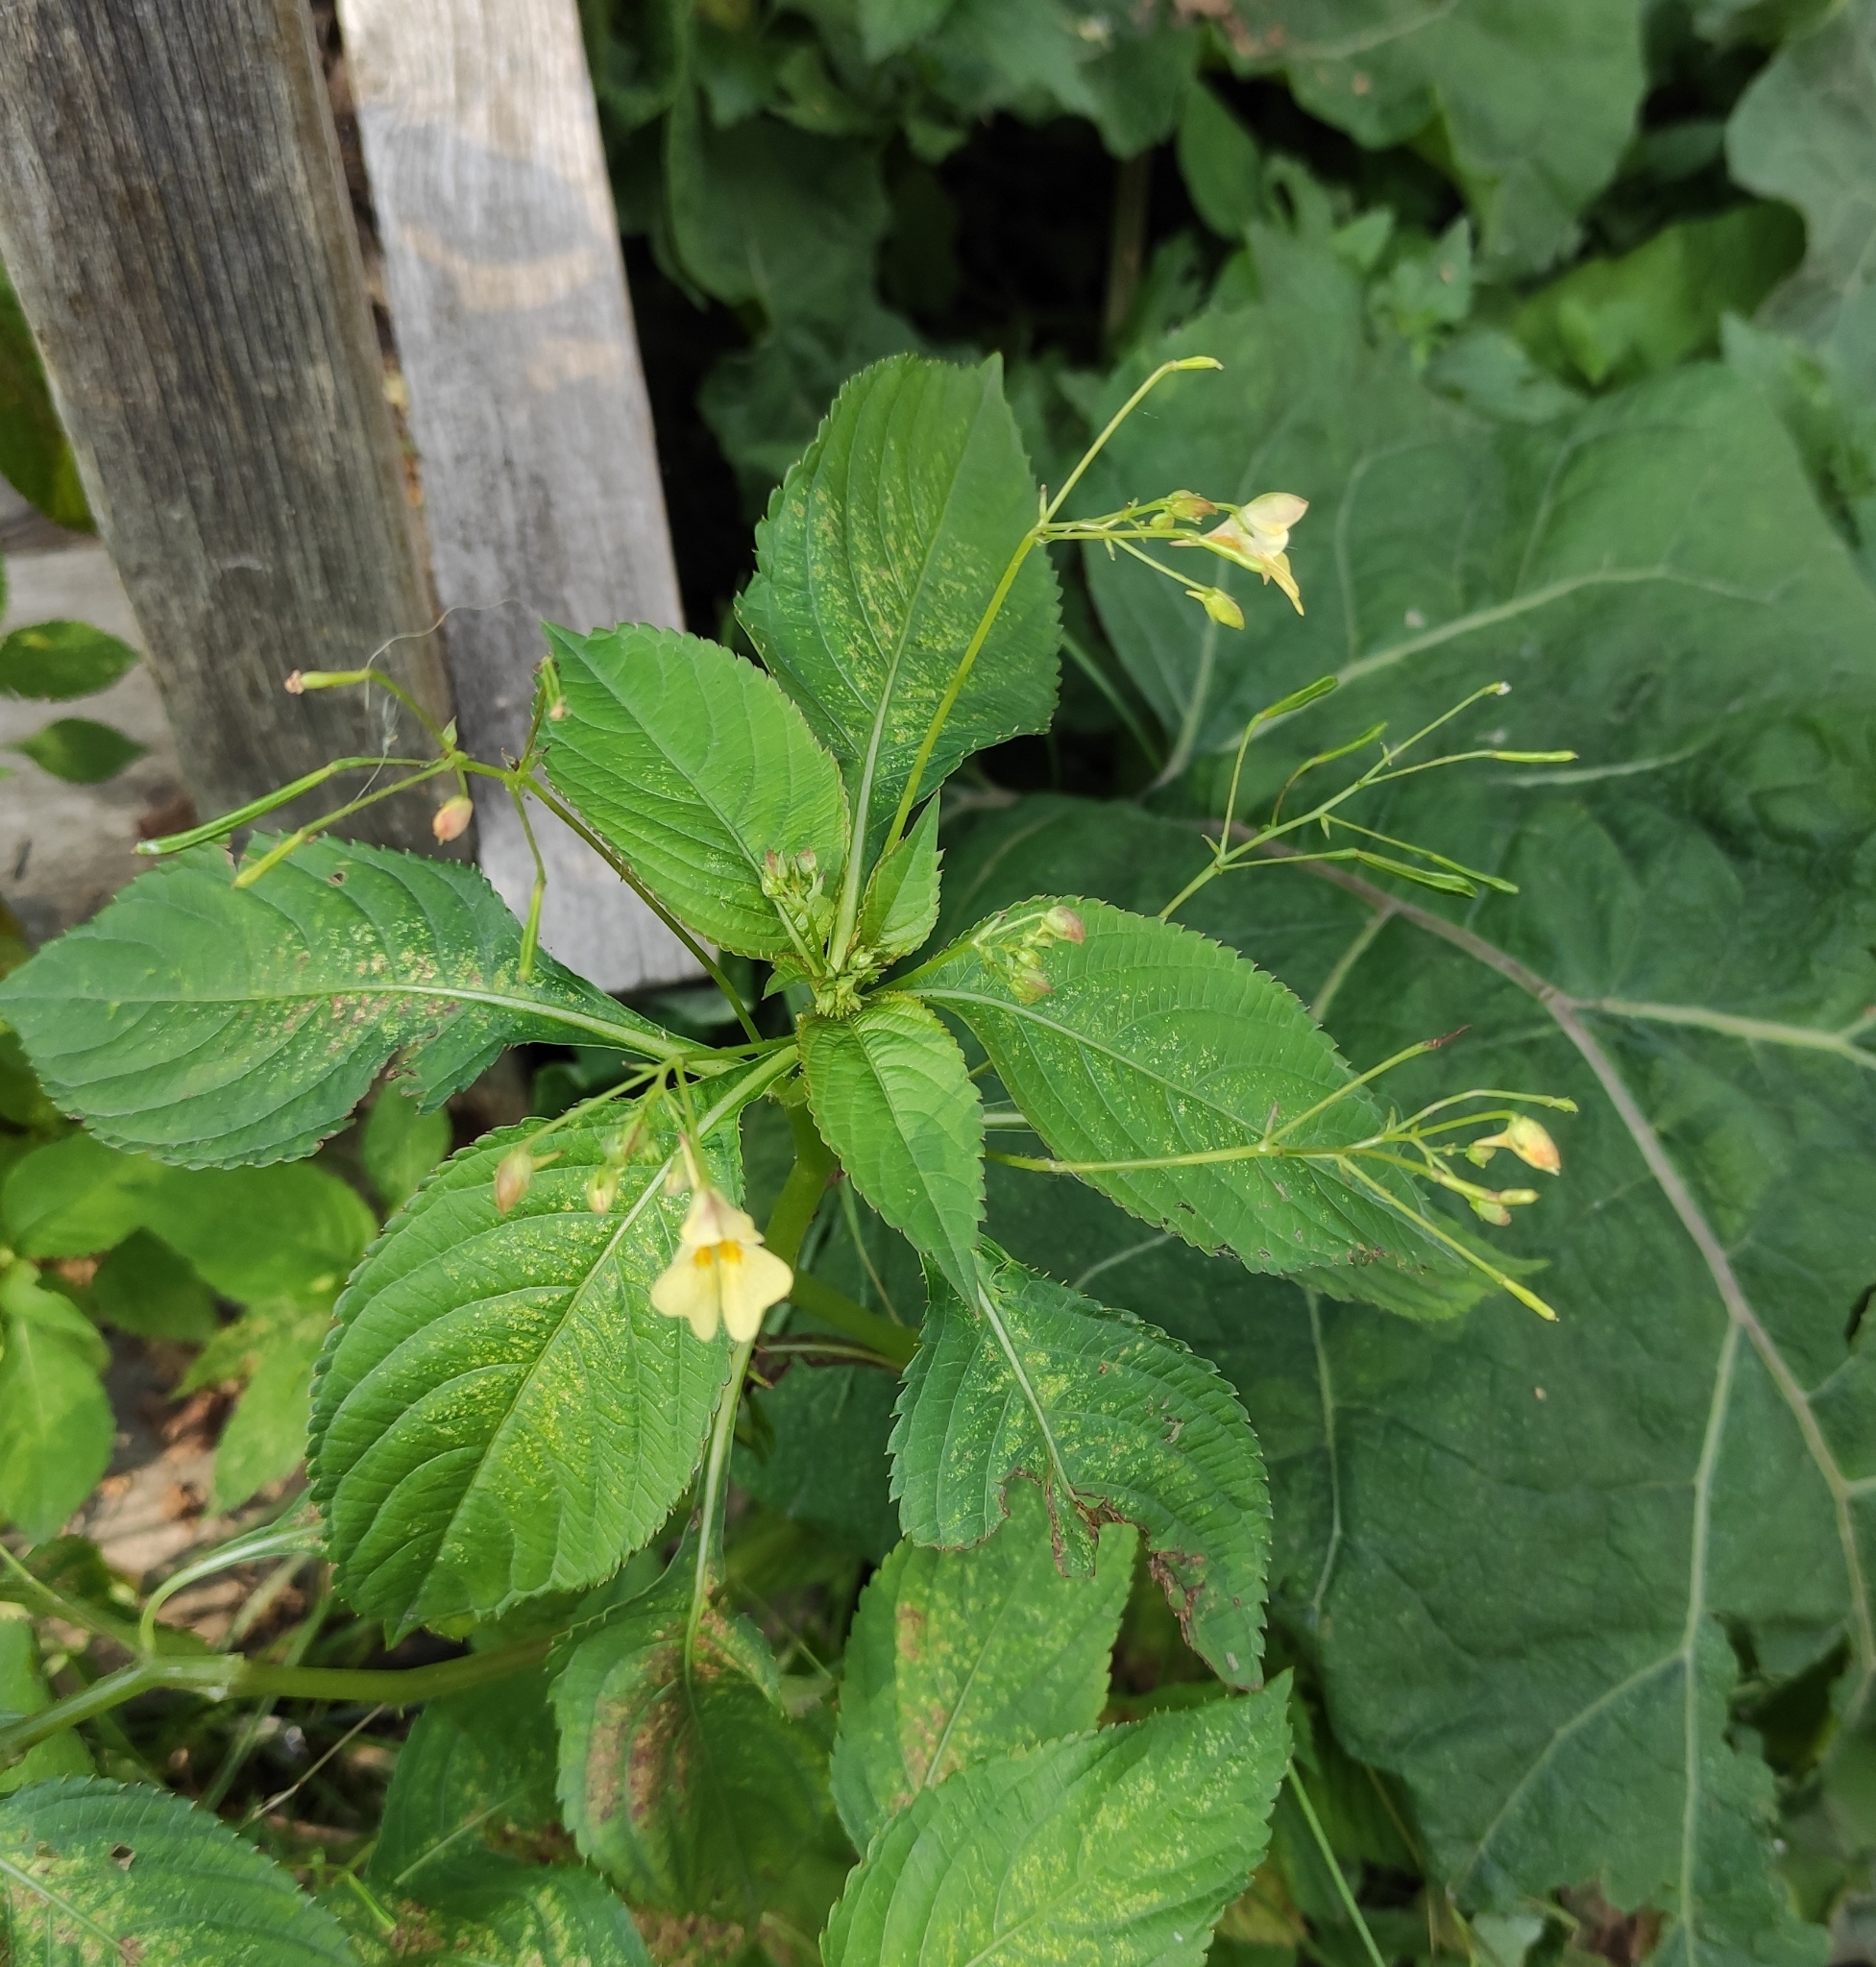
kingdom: Plantae
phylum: Tracheophyta
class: Magnoliopsida
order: Ericales
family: Balsaminaceae
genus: Impatiens
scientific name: Impatiens parviflora
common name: Small balsam
